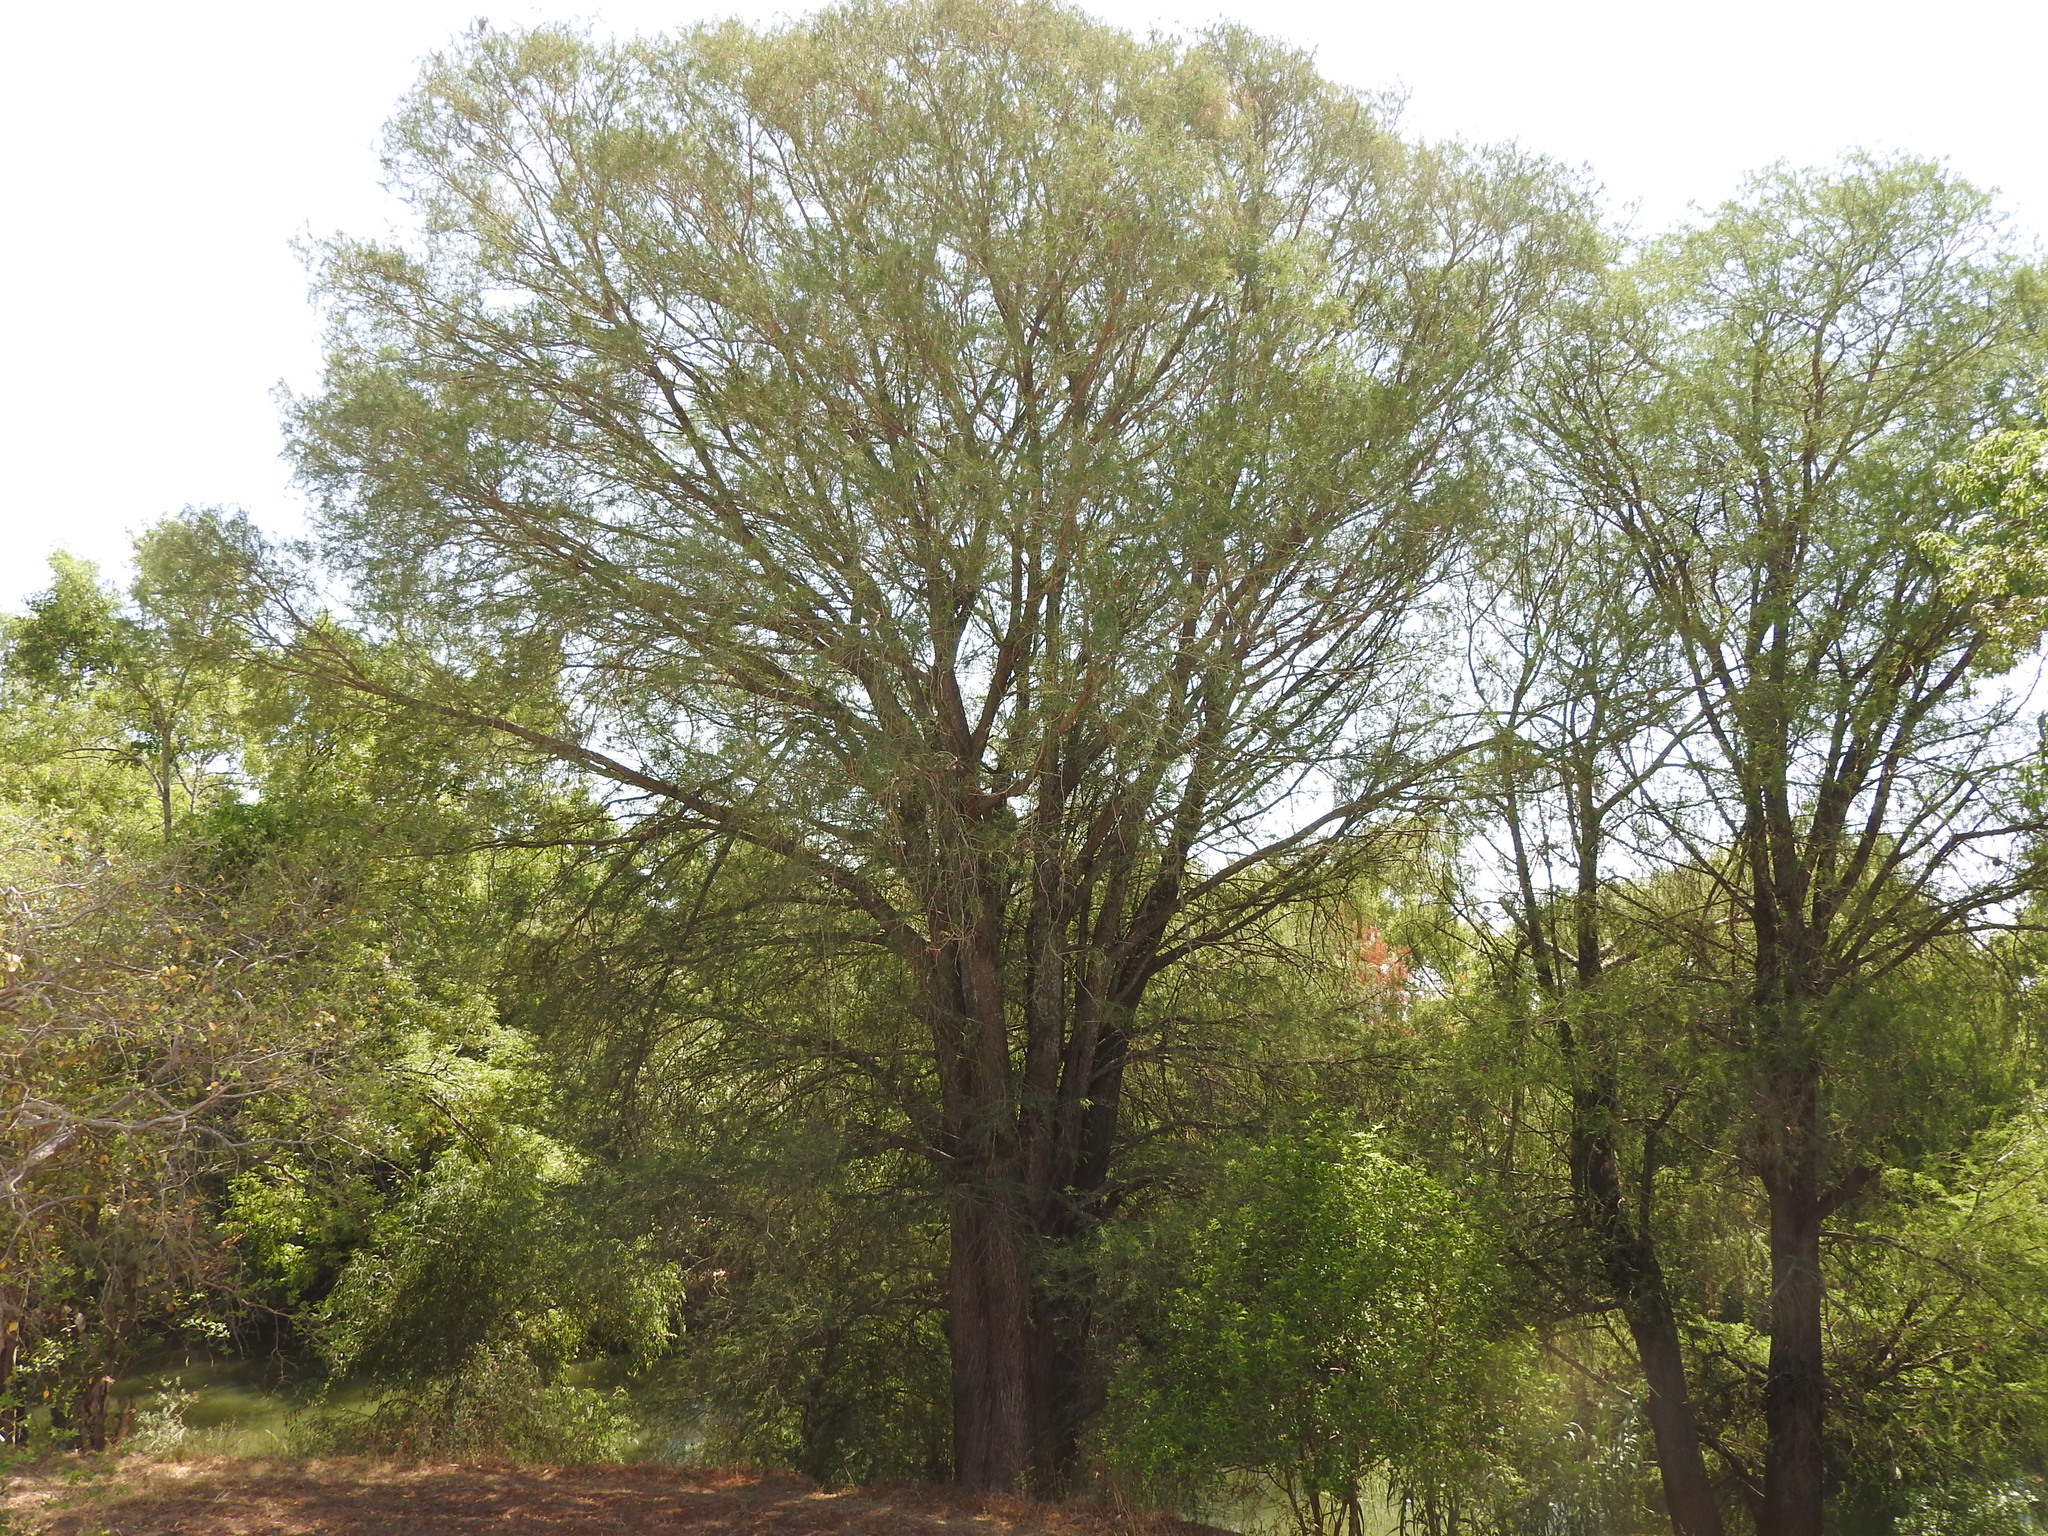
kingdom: Plantae
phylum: Tracheophyta
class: Pinopsida
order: Pinales
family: Cupressaceae
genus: Taxodium
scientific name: Taxodium mucronatum
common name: Montezume bald cypress
